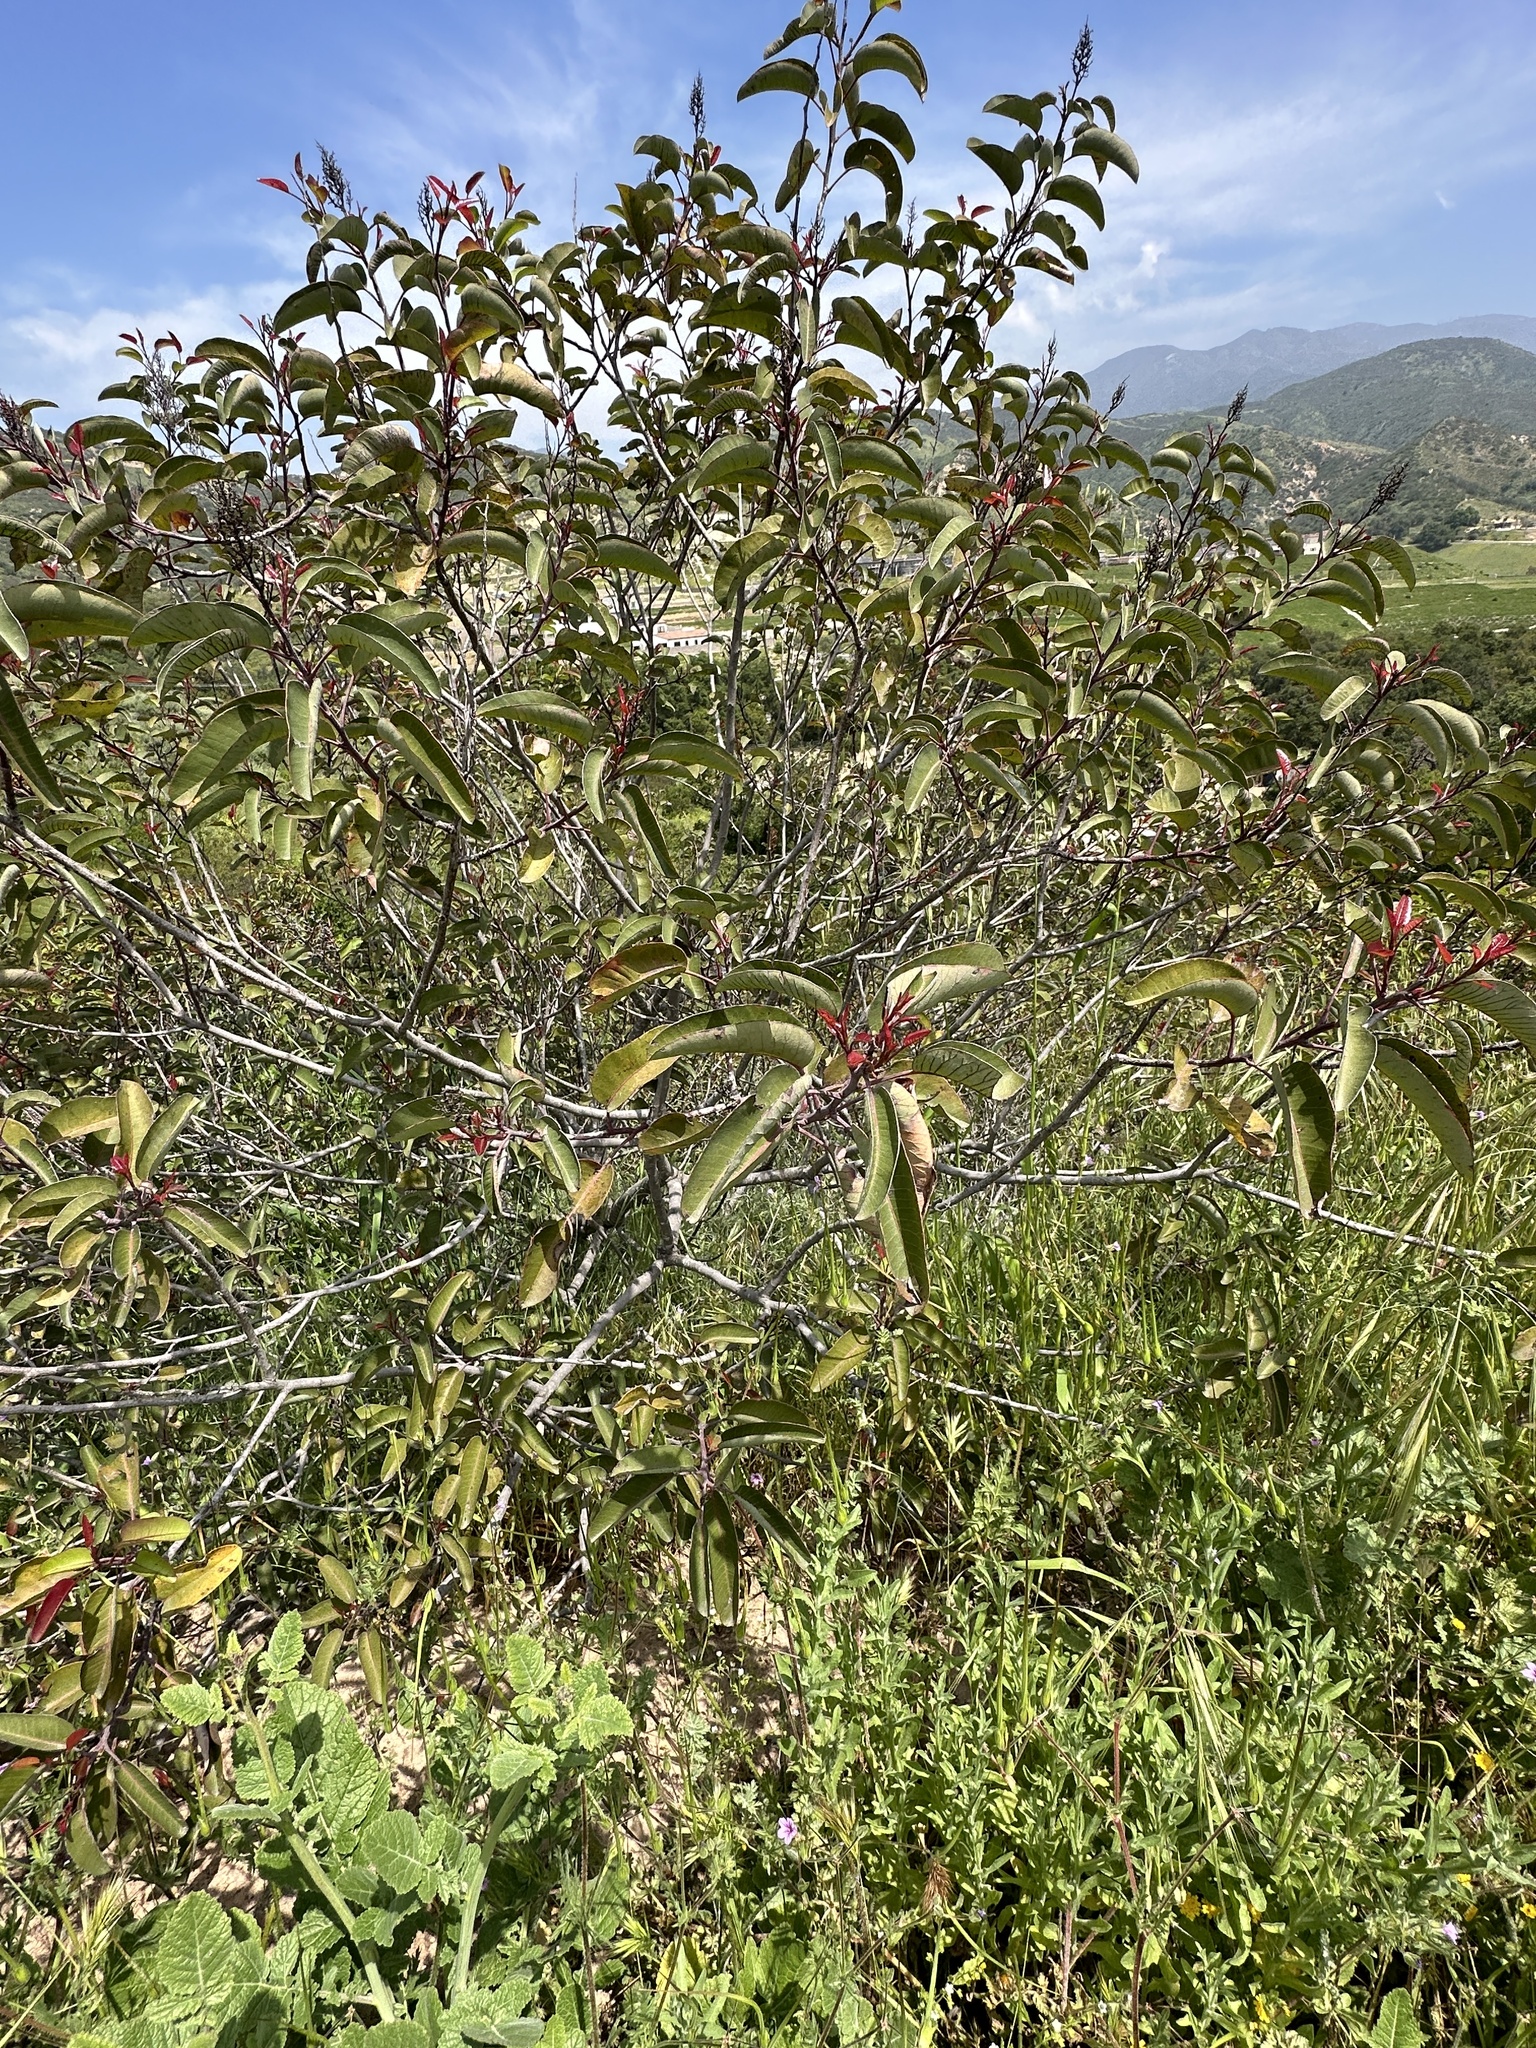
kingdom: Plantae
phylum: Tracheophyta
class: Magnoliopsida
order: Sapindales
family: Anacardiaceae
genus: Malosma
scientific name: Malosma laurina
